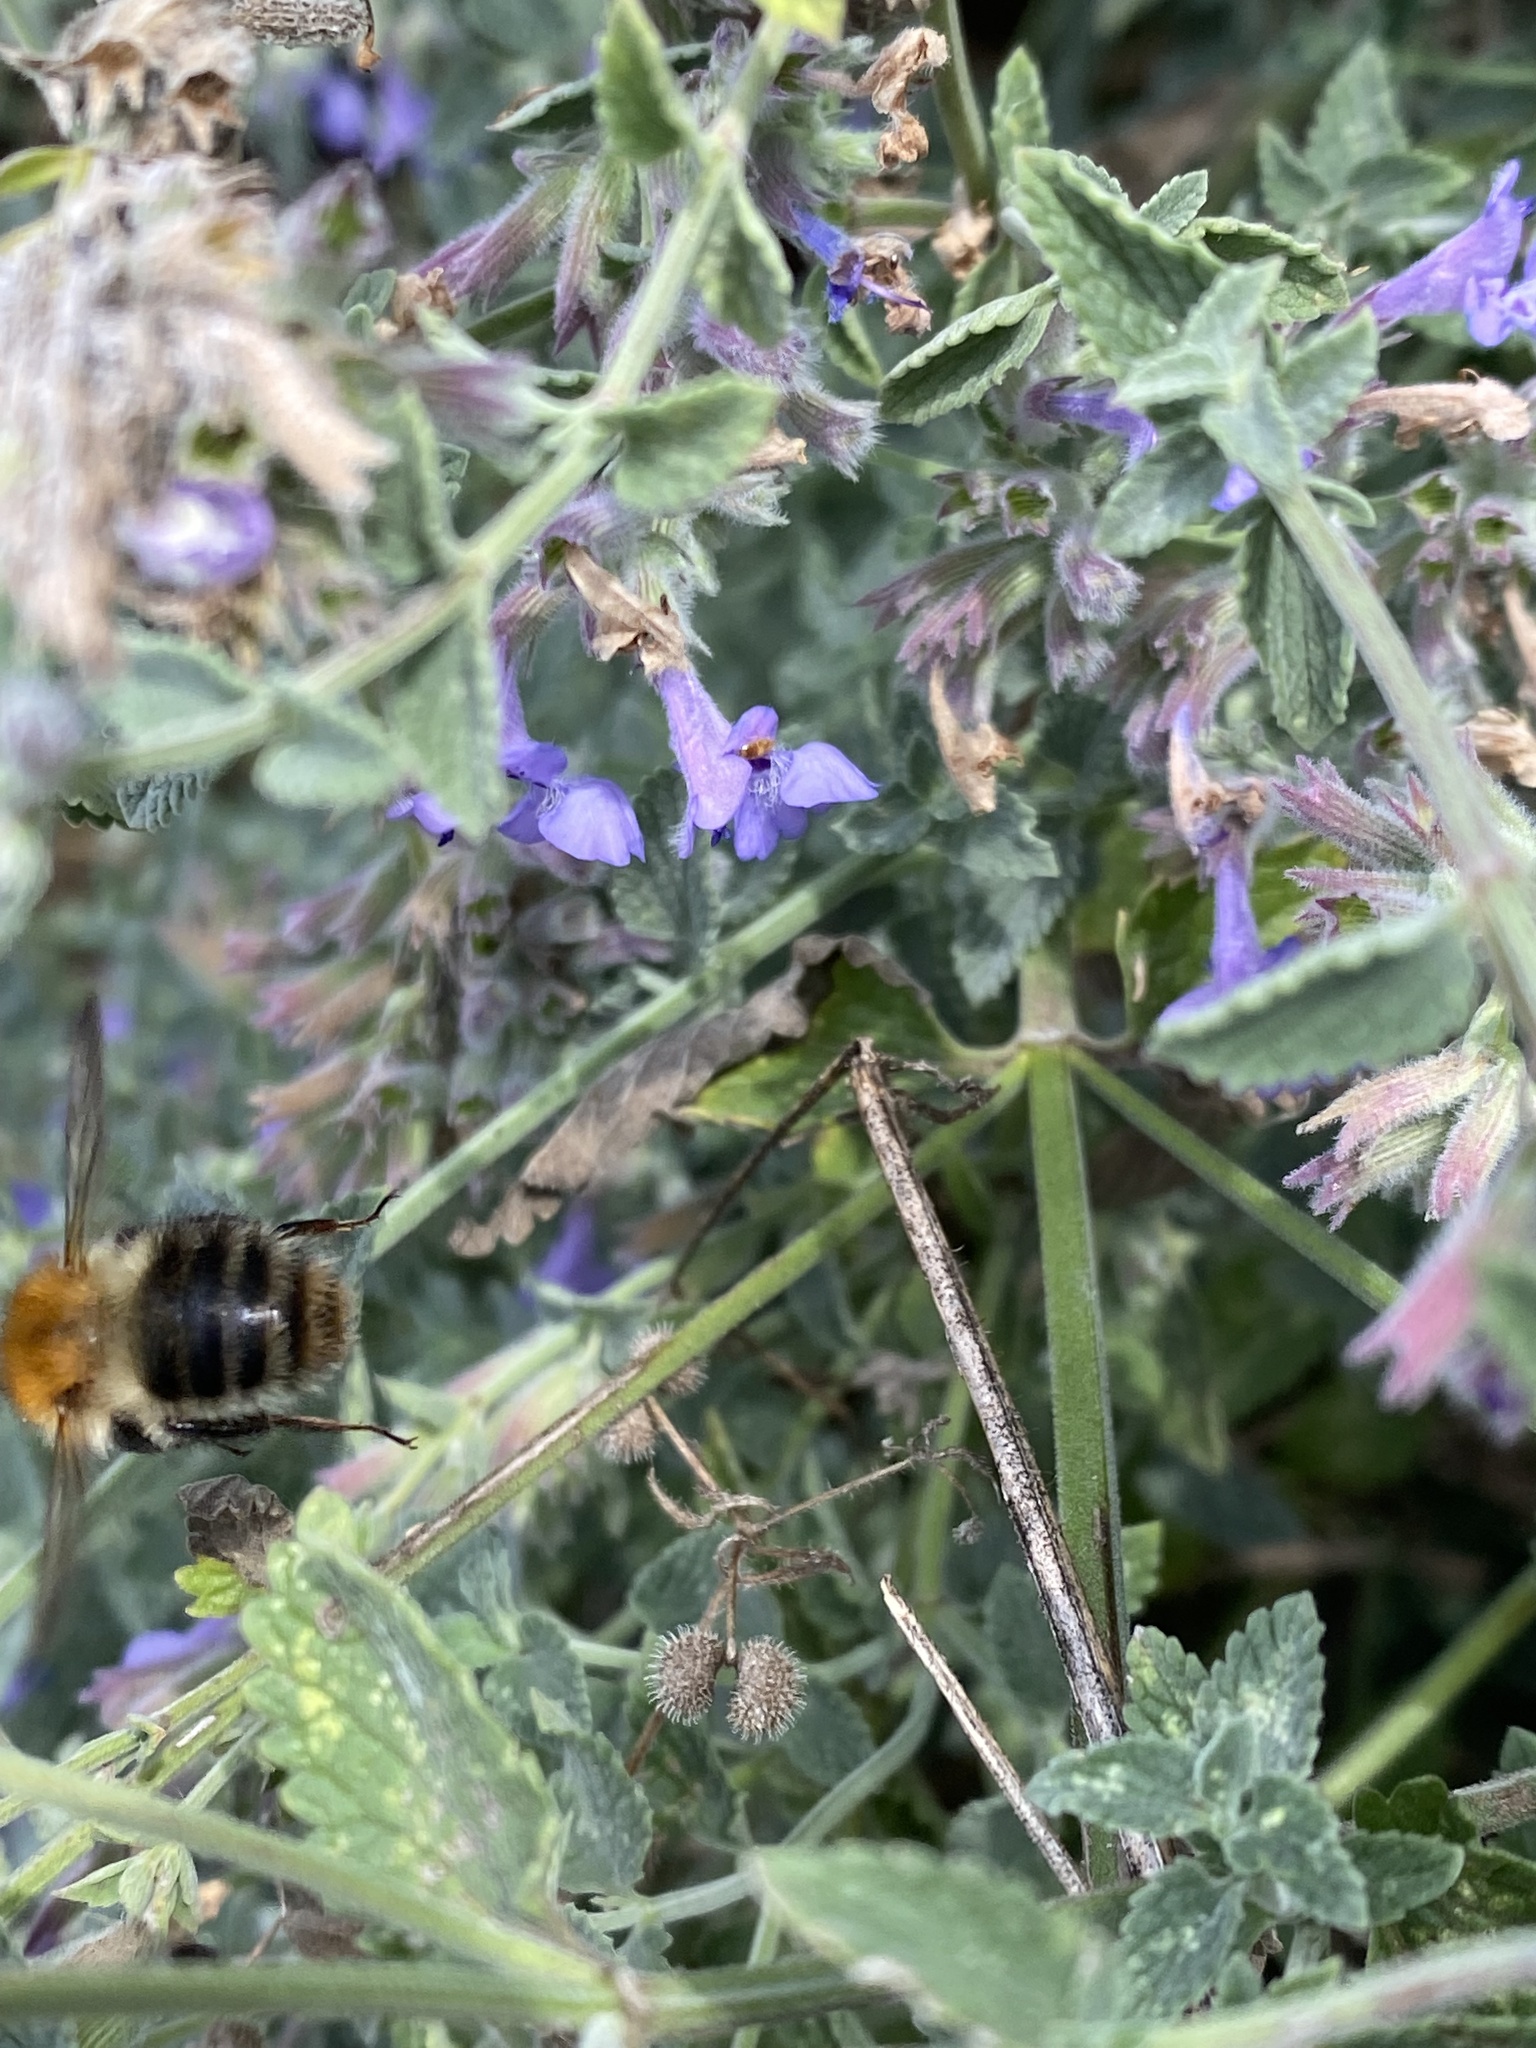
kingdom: Animalia
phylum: Arthropoda
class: Insecta
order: Hymenoptera
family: Apidae
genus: Bombus
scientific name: Bombus pascuorum
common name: Common carder bee
